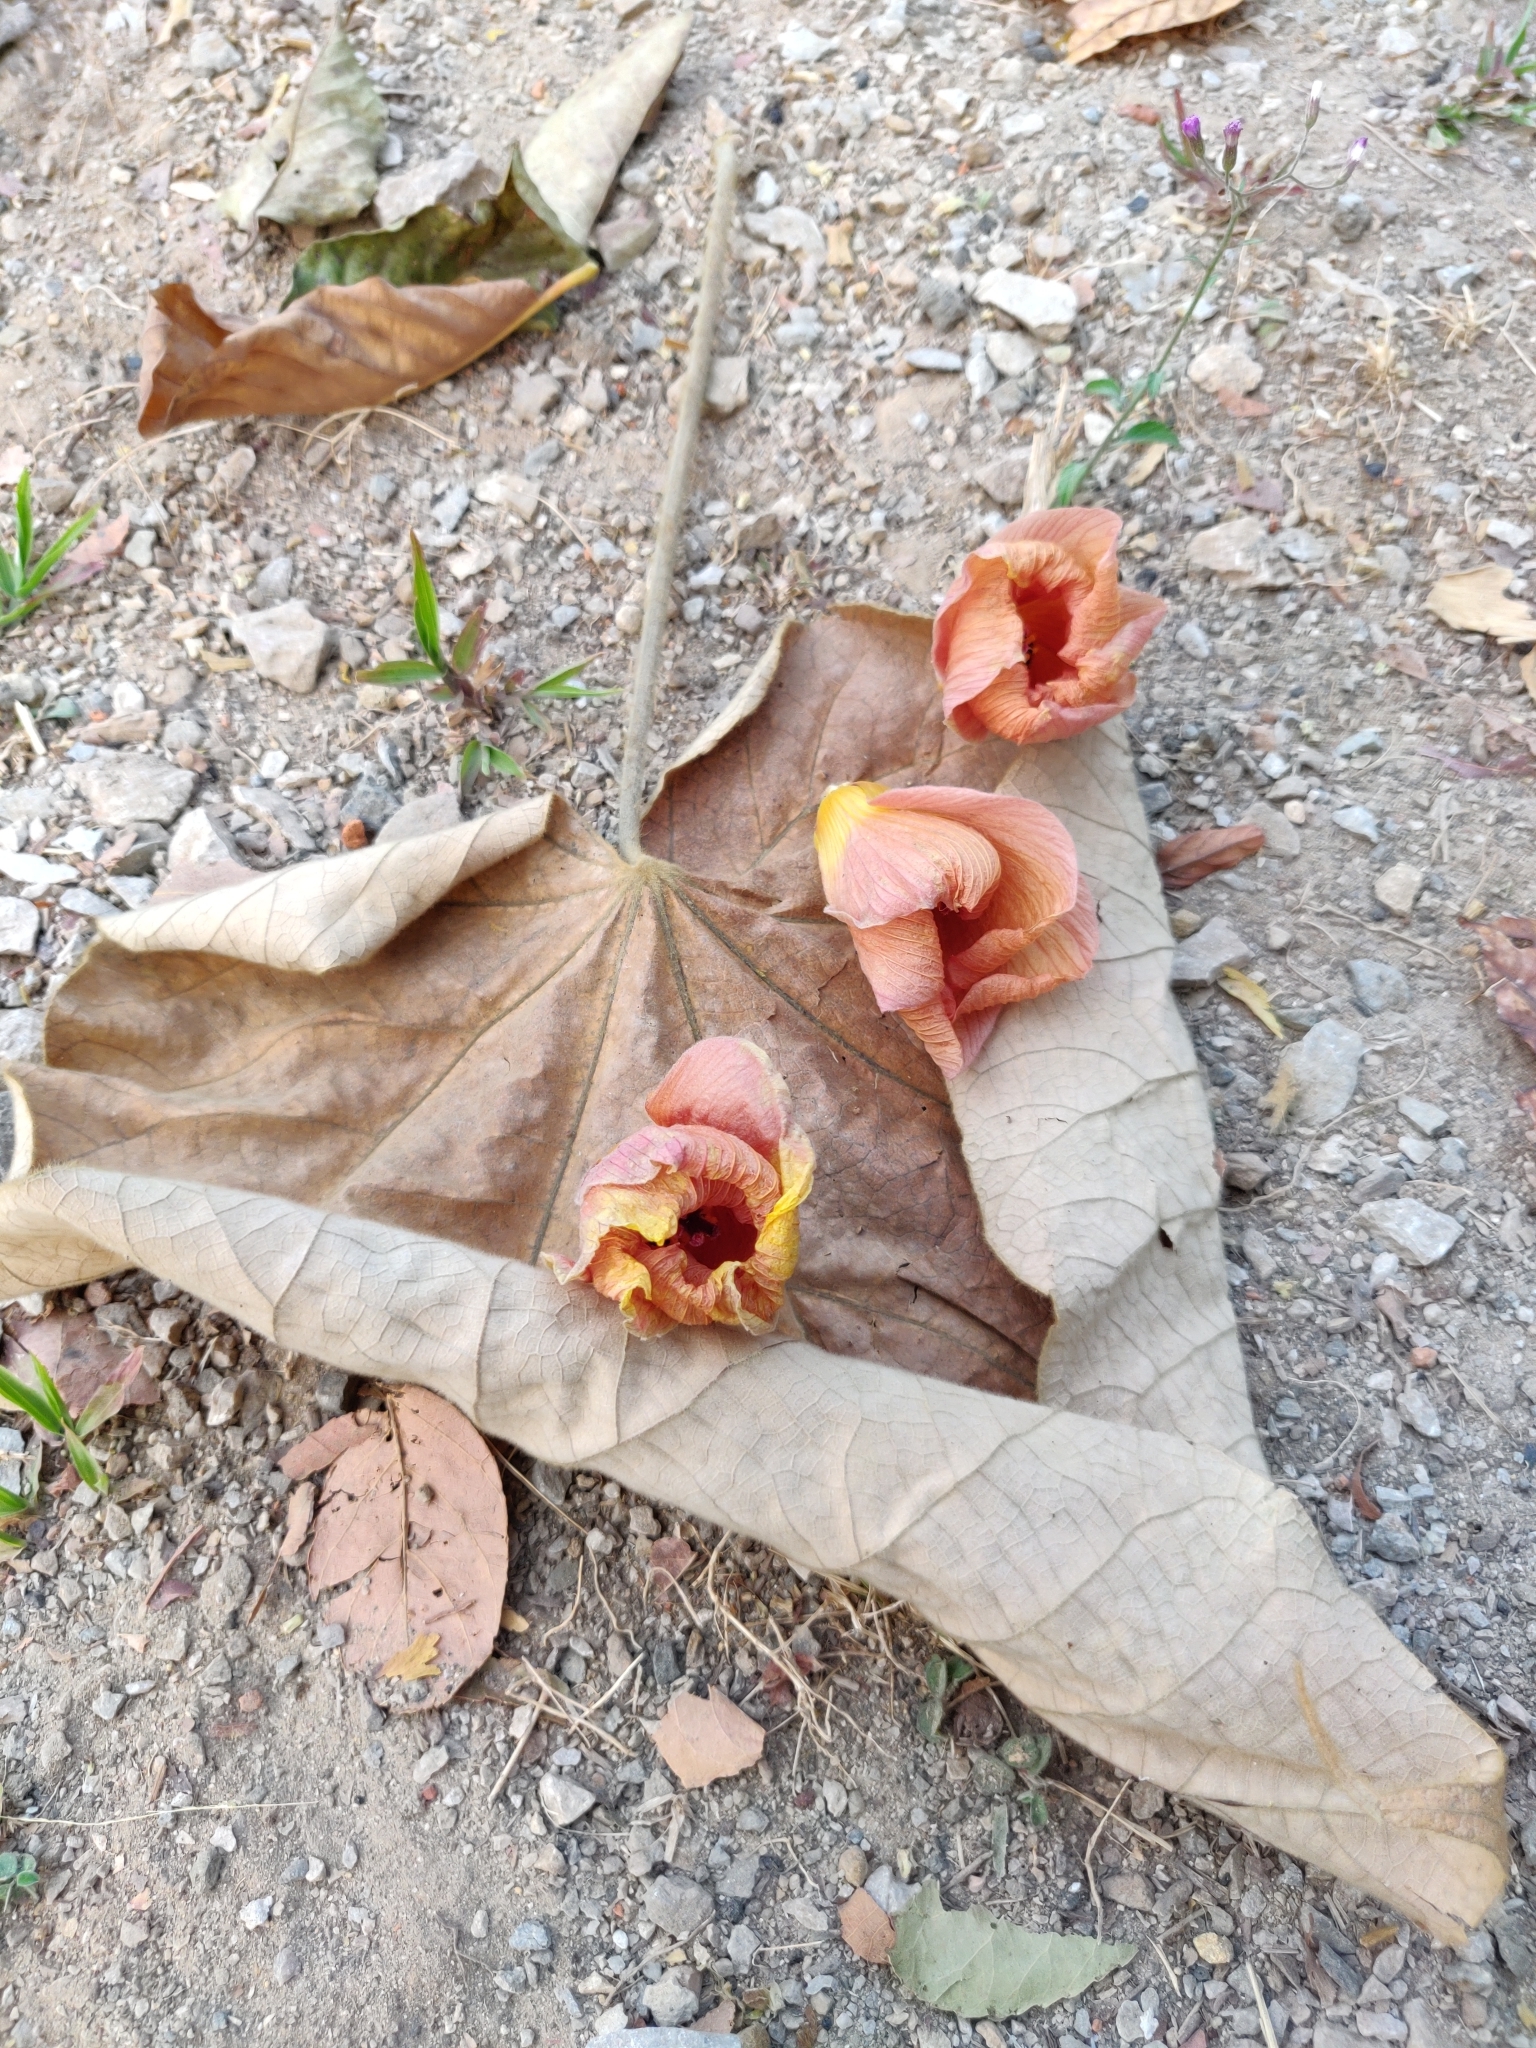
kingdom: Plantae
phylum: Tracheophyta
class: Magnoliopsida
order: Malvales
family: Malvaceae
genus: Talipariti
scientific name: Talipariti tiliaceum
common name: Sea hibiscus
